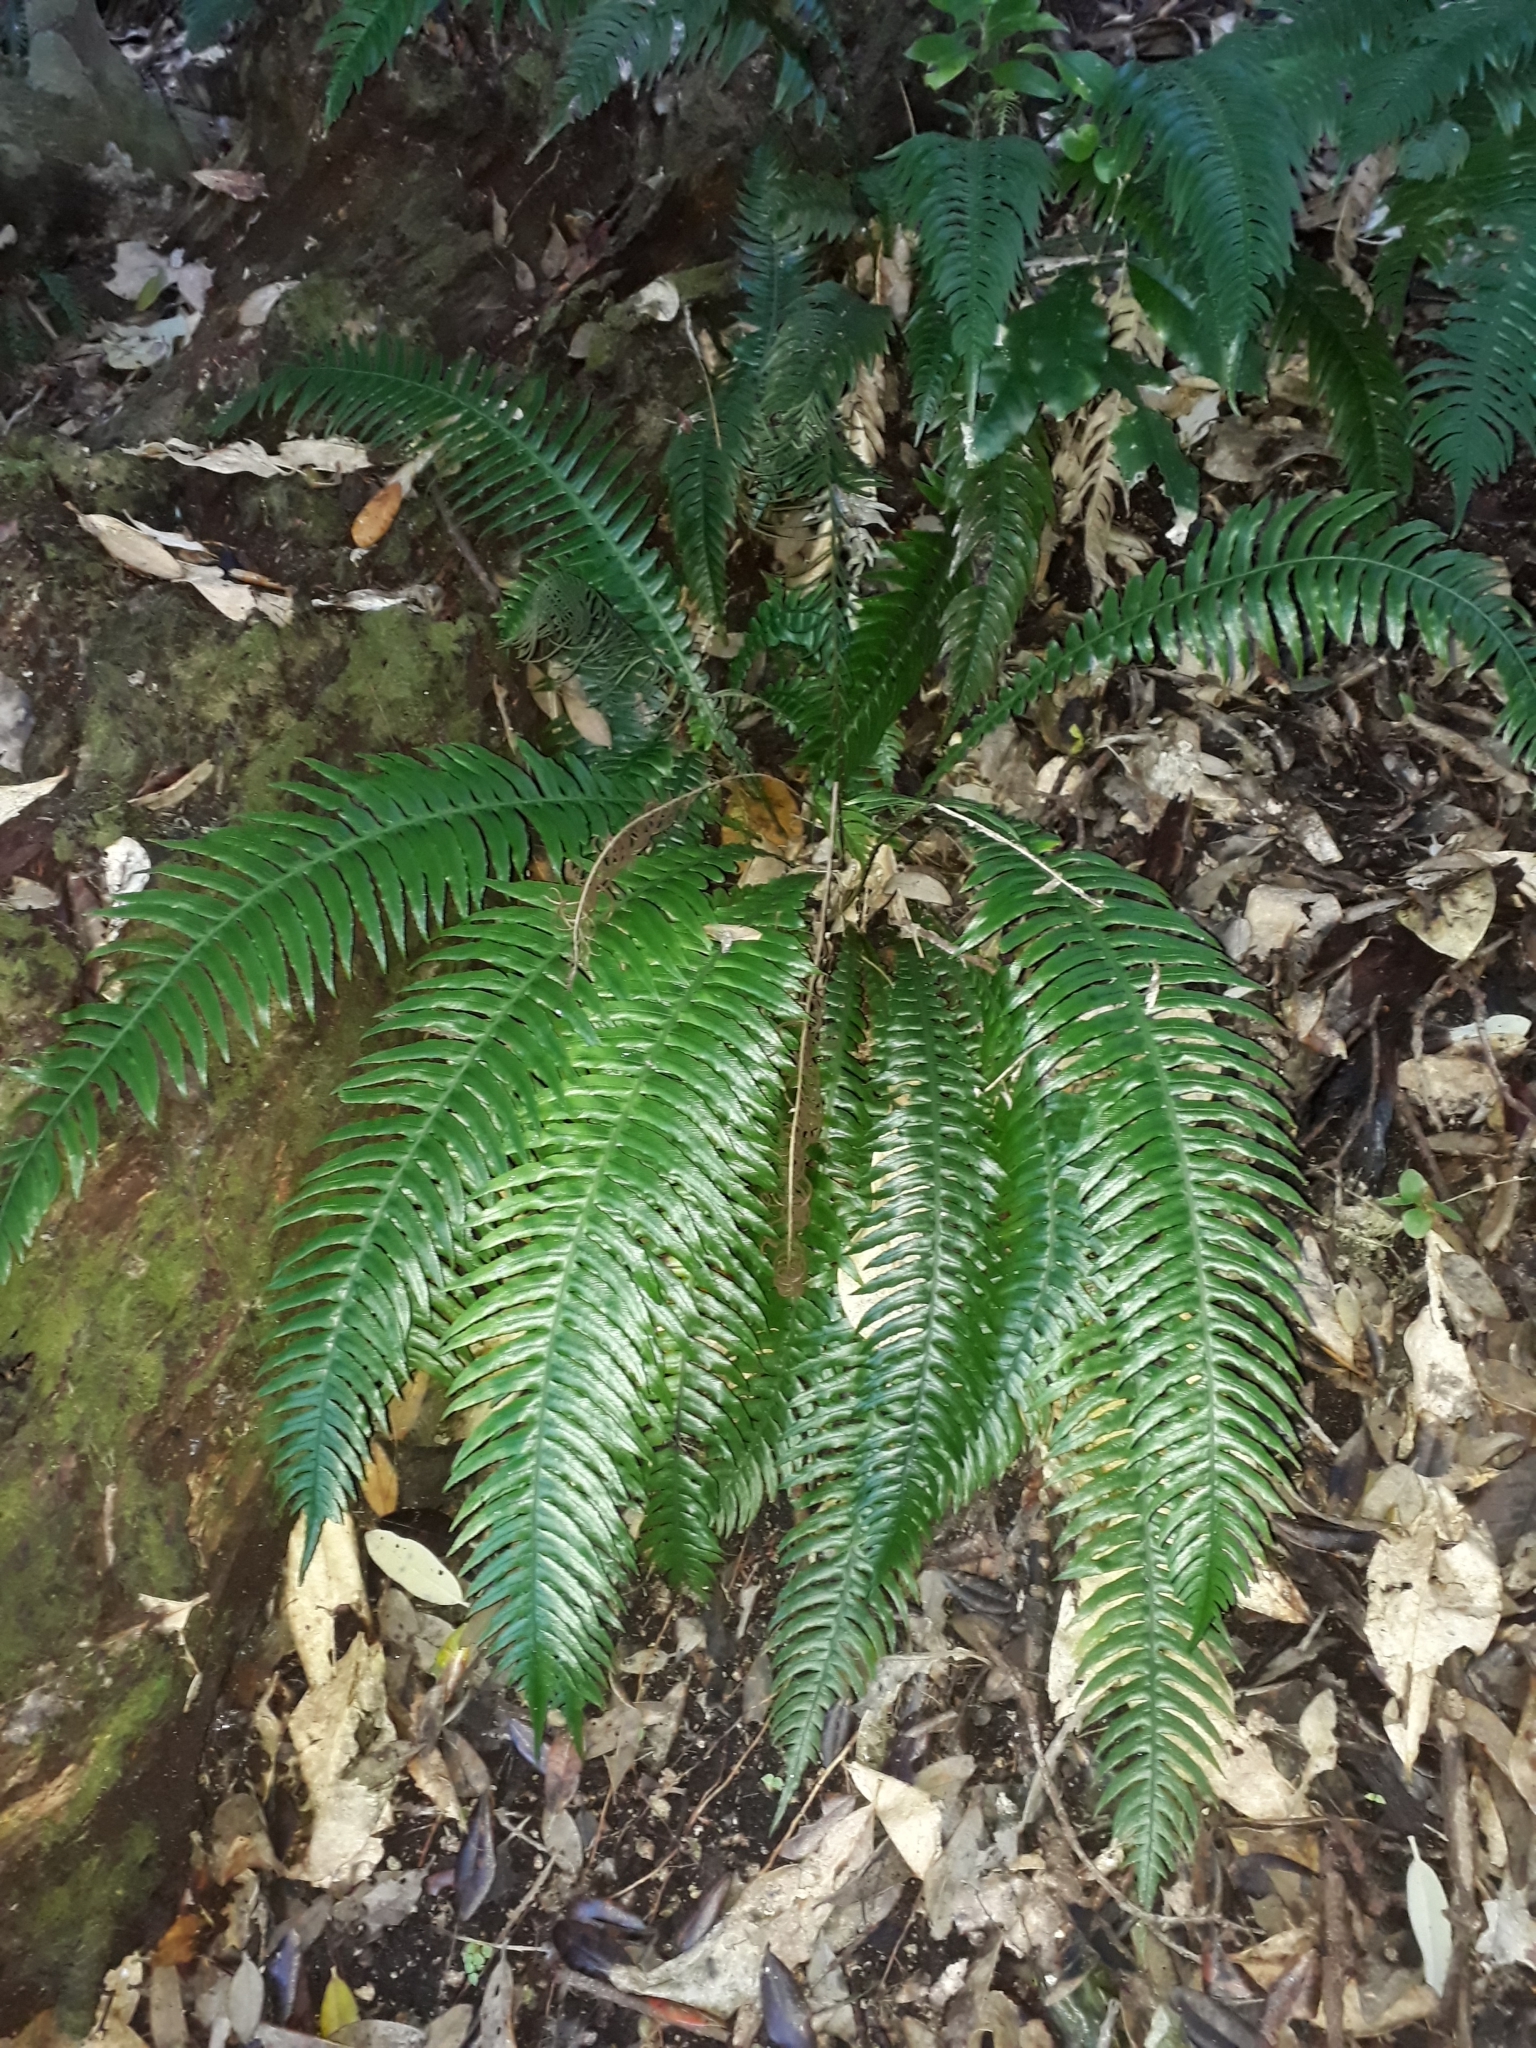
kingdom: Plantae
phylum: Tracheophyta
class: Polypodiopsida
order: Polypodiales
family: Blechnaceae
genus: Austroblechnum
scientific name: Austroblechnum norfolkianum
